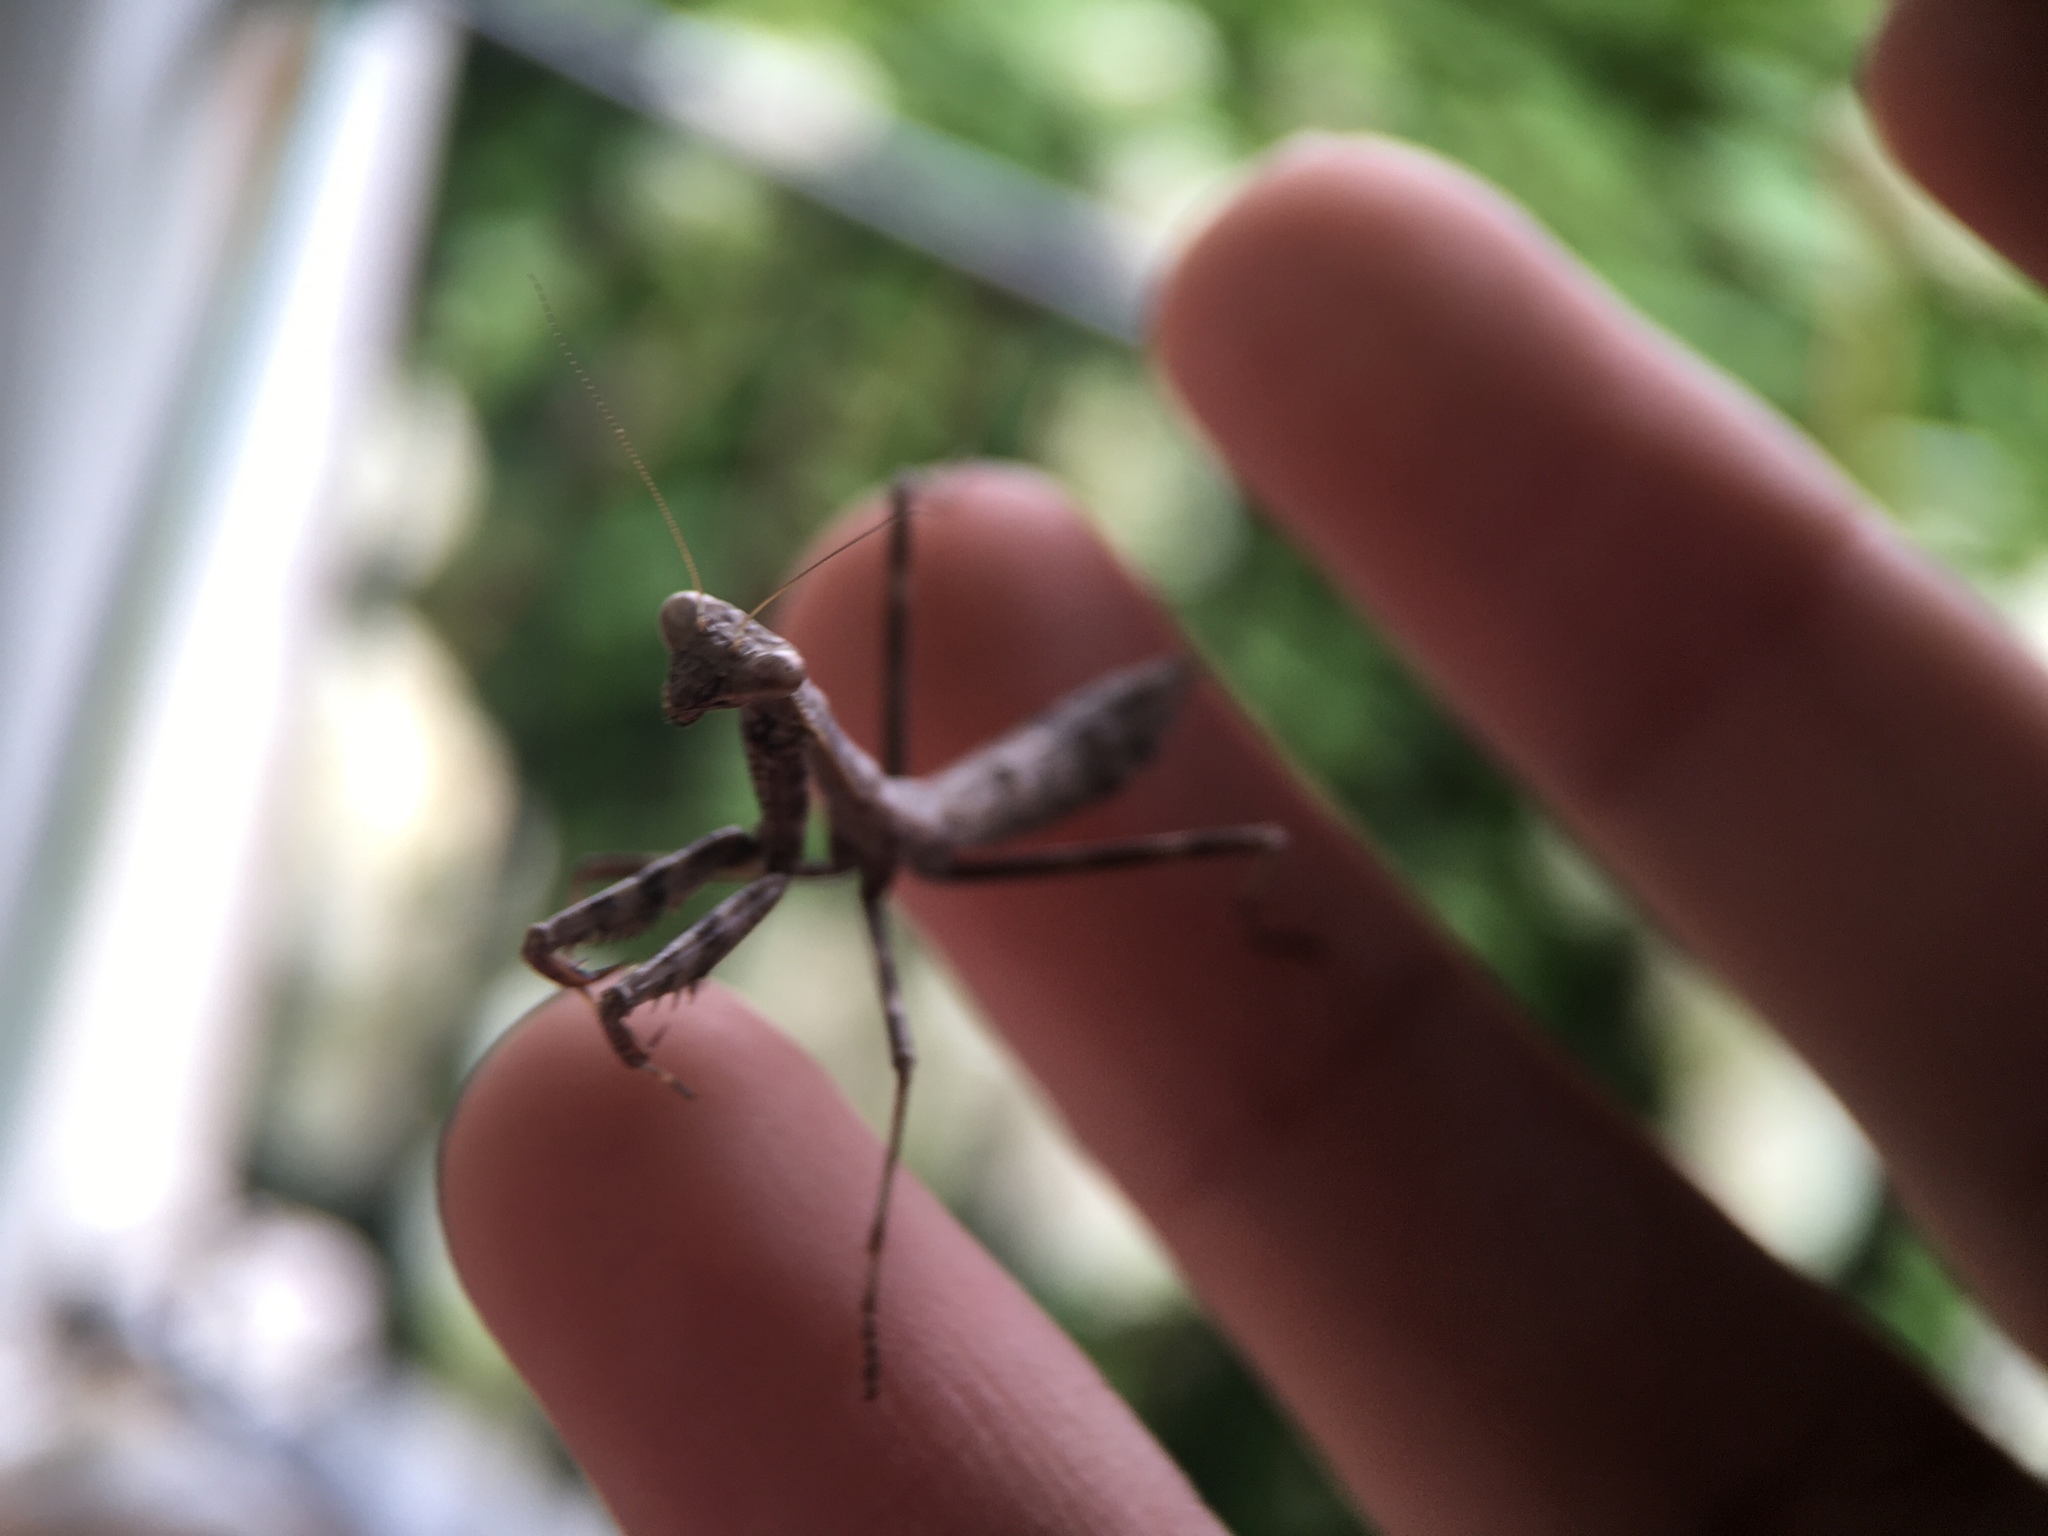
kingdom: Animalia
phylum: Arthropoda
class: Insecta
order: Mantodea
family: Mantidae
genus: Stagmomantis
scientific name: Stagmomantis carolina
